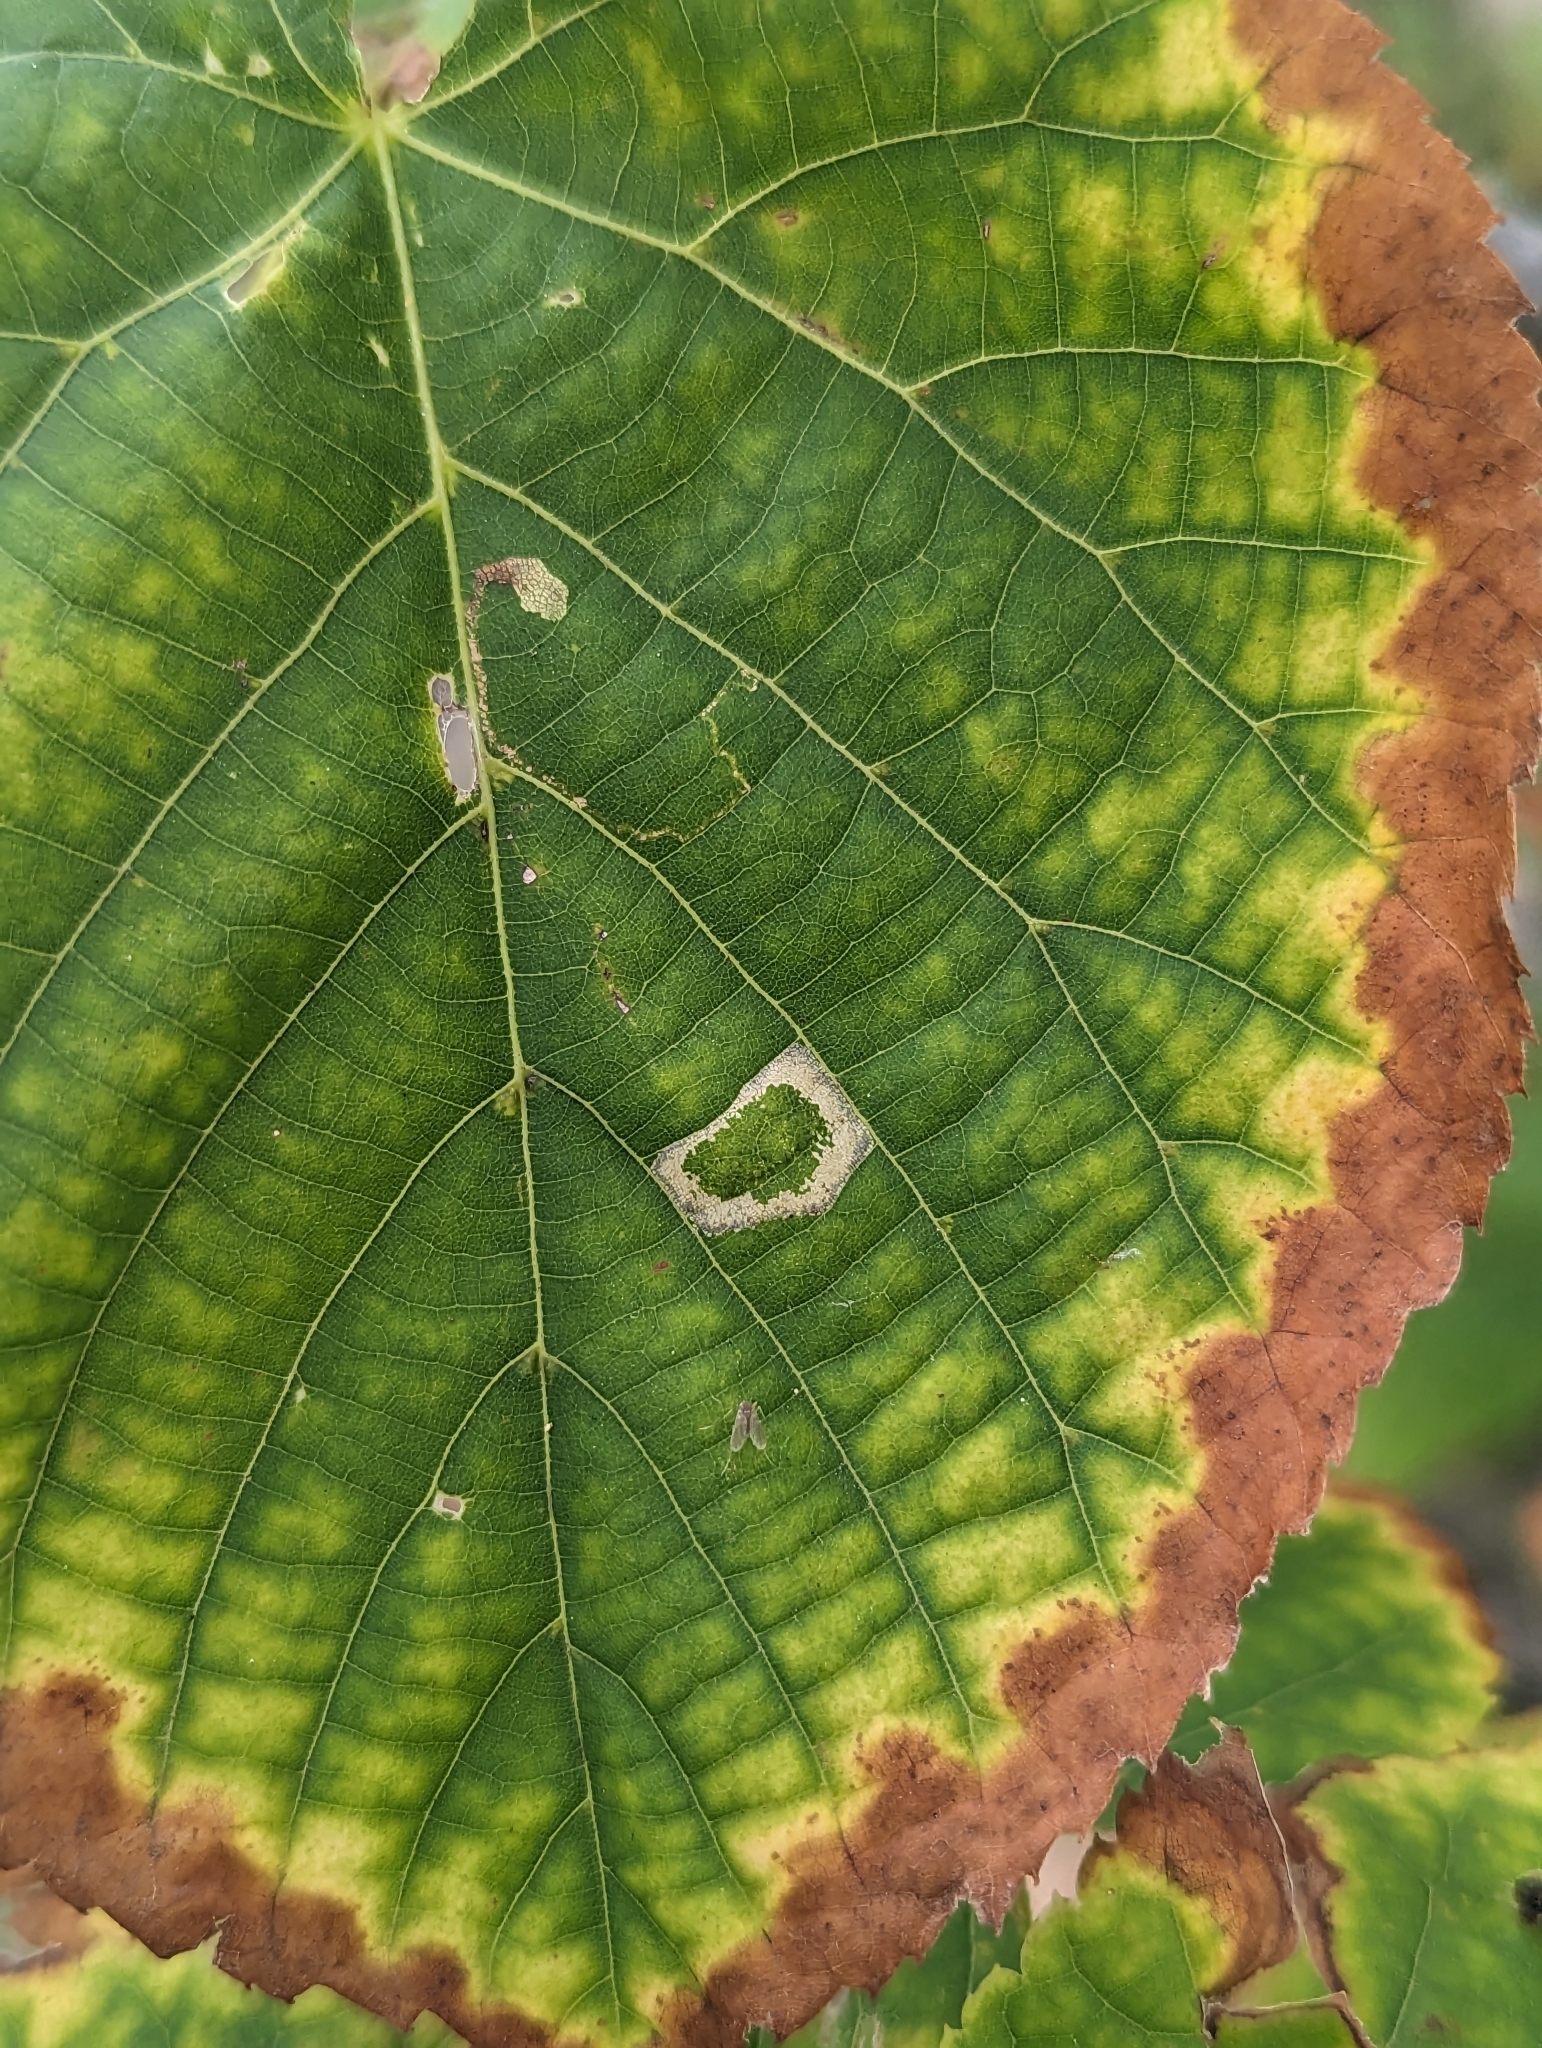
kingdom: Animalia
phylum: Arthropoda
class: Insecta
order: Lepidoptera
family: Gracillariidae
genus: Phyllonorycter
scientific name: Phyllonorycter lucetiella
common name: Basswood miner moth
